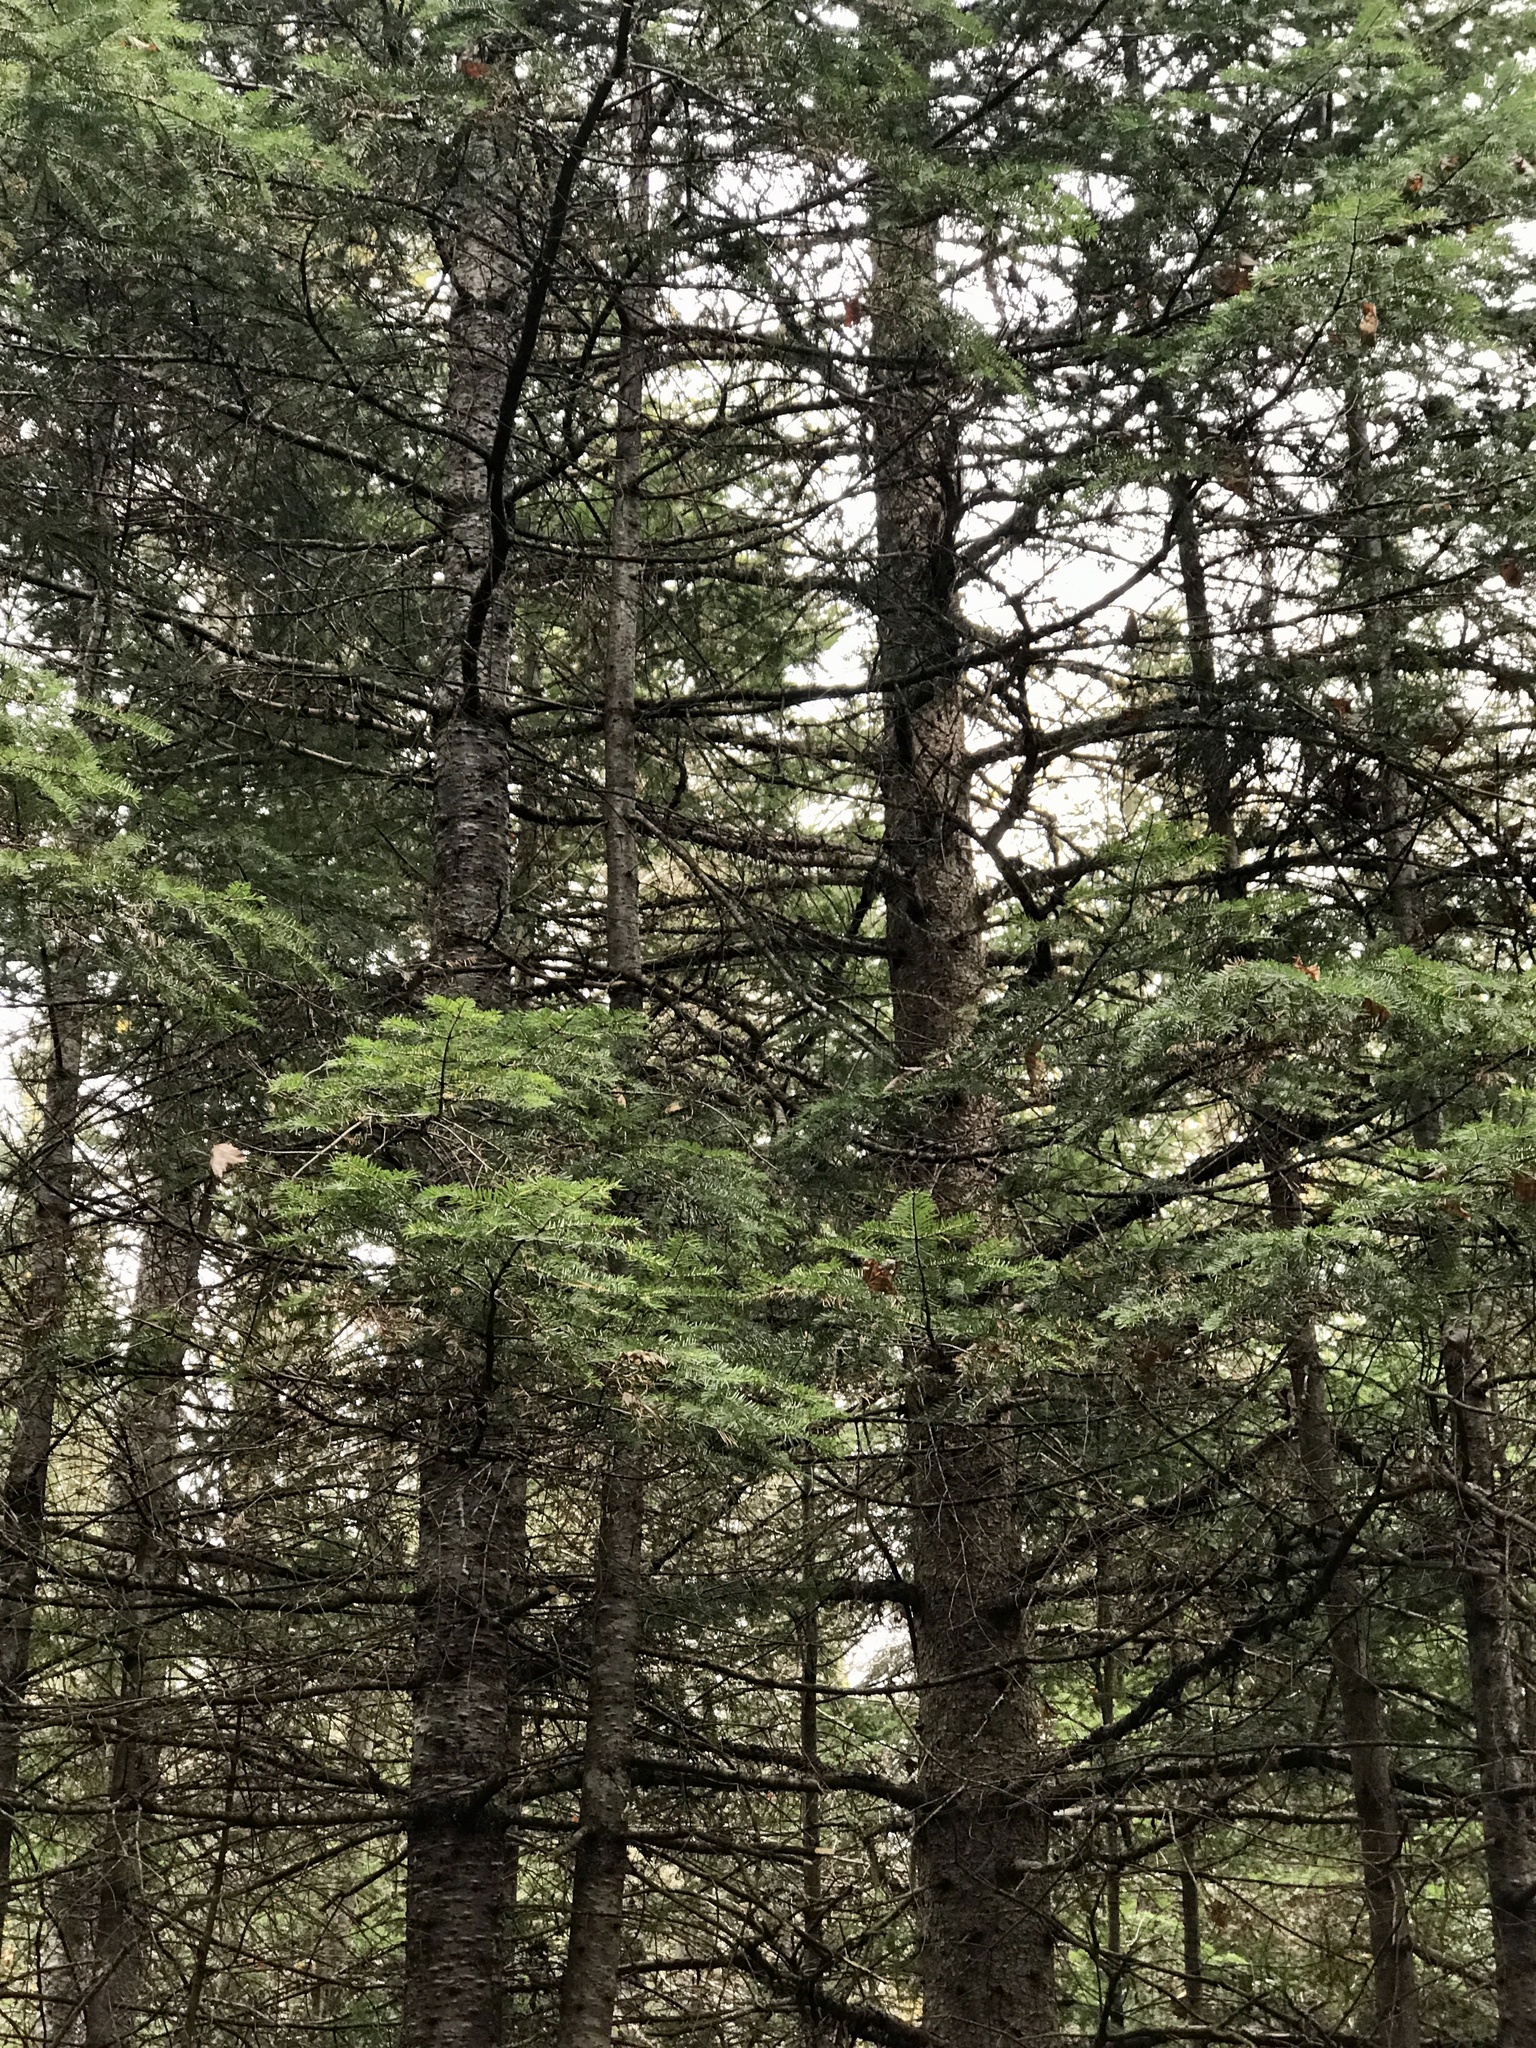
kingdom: Plantae
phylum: Tracheophyta
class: Pinopsida
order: Pinales
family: Pinaceae
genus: Abies
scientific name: Abies balsamea
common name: Balsam fir
